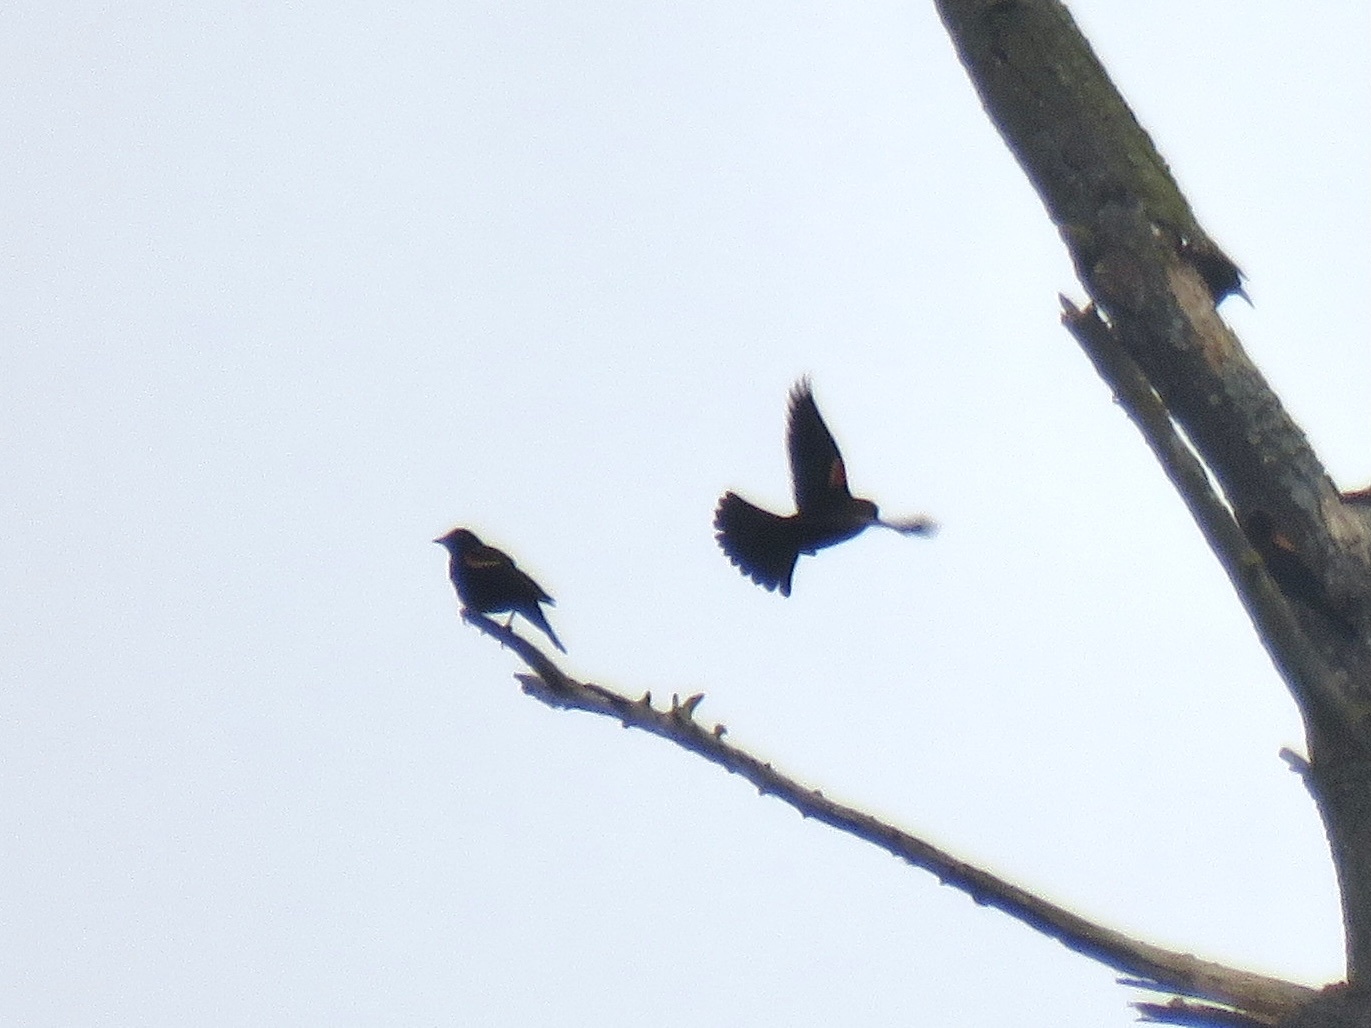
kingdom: Animalia
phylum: Chordata
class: Aves
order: Passeriformes
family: Icteridae
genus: Agelaius
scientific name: Agelaius phoeniceus
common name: Red-winged blackbird
